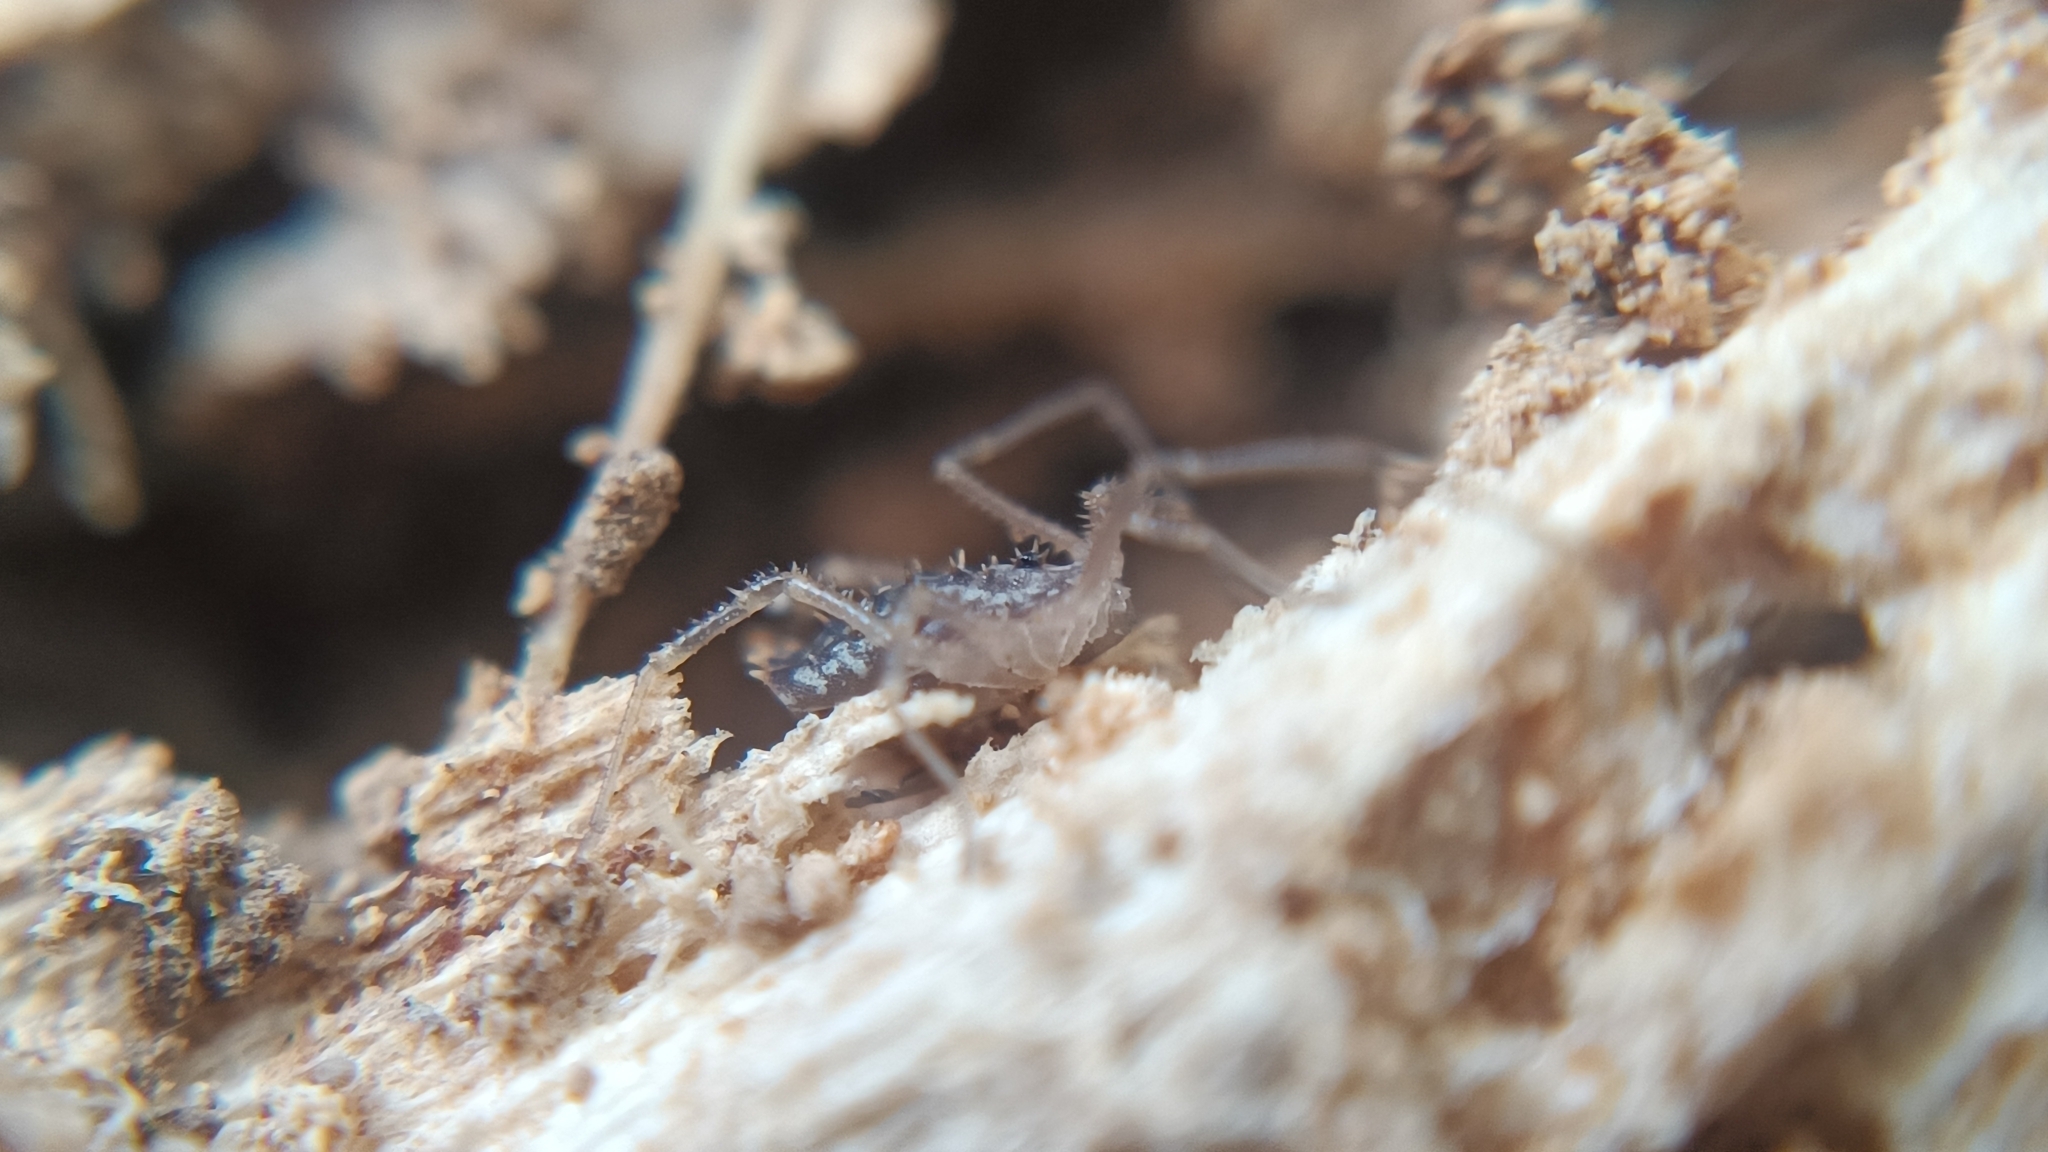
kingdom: Animalia
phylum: Arthropoda
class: Arachnida
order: Opiliones
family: Sclerosomatidae
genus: Homalenotus
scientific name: Homalenotus quadridentatus
